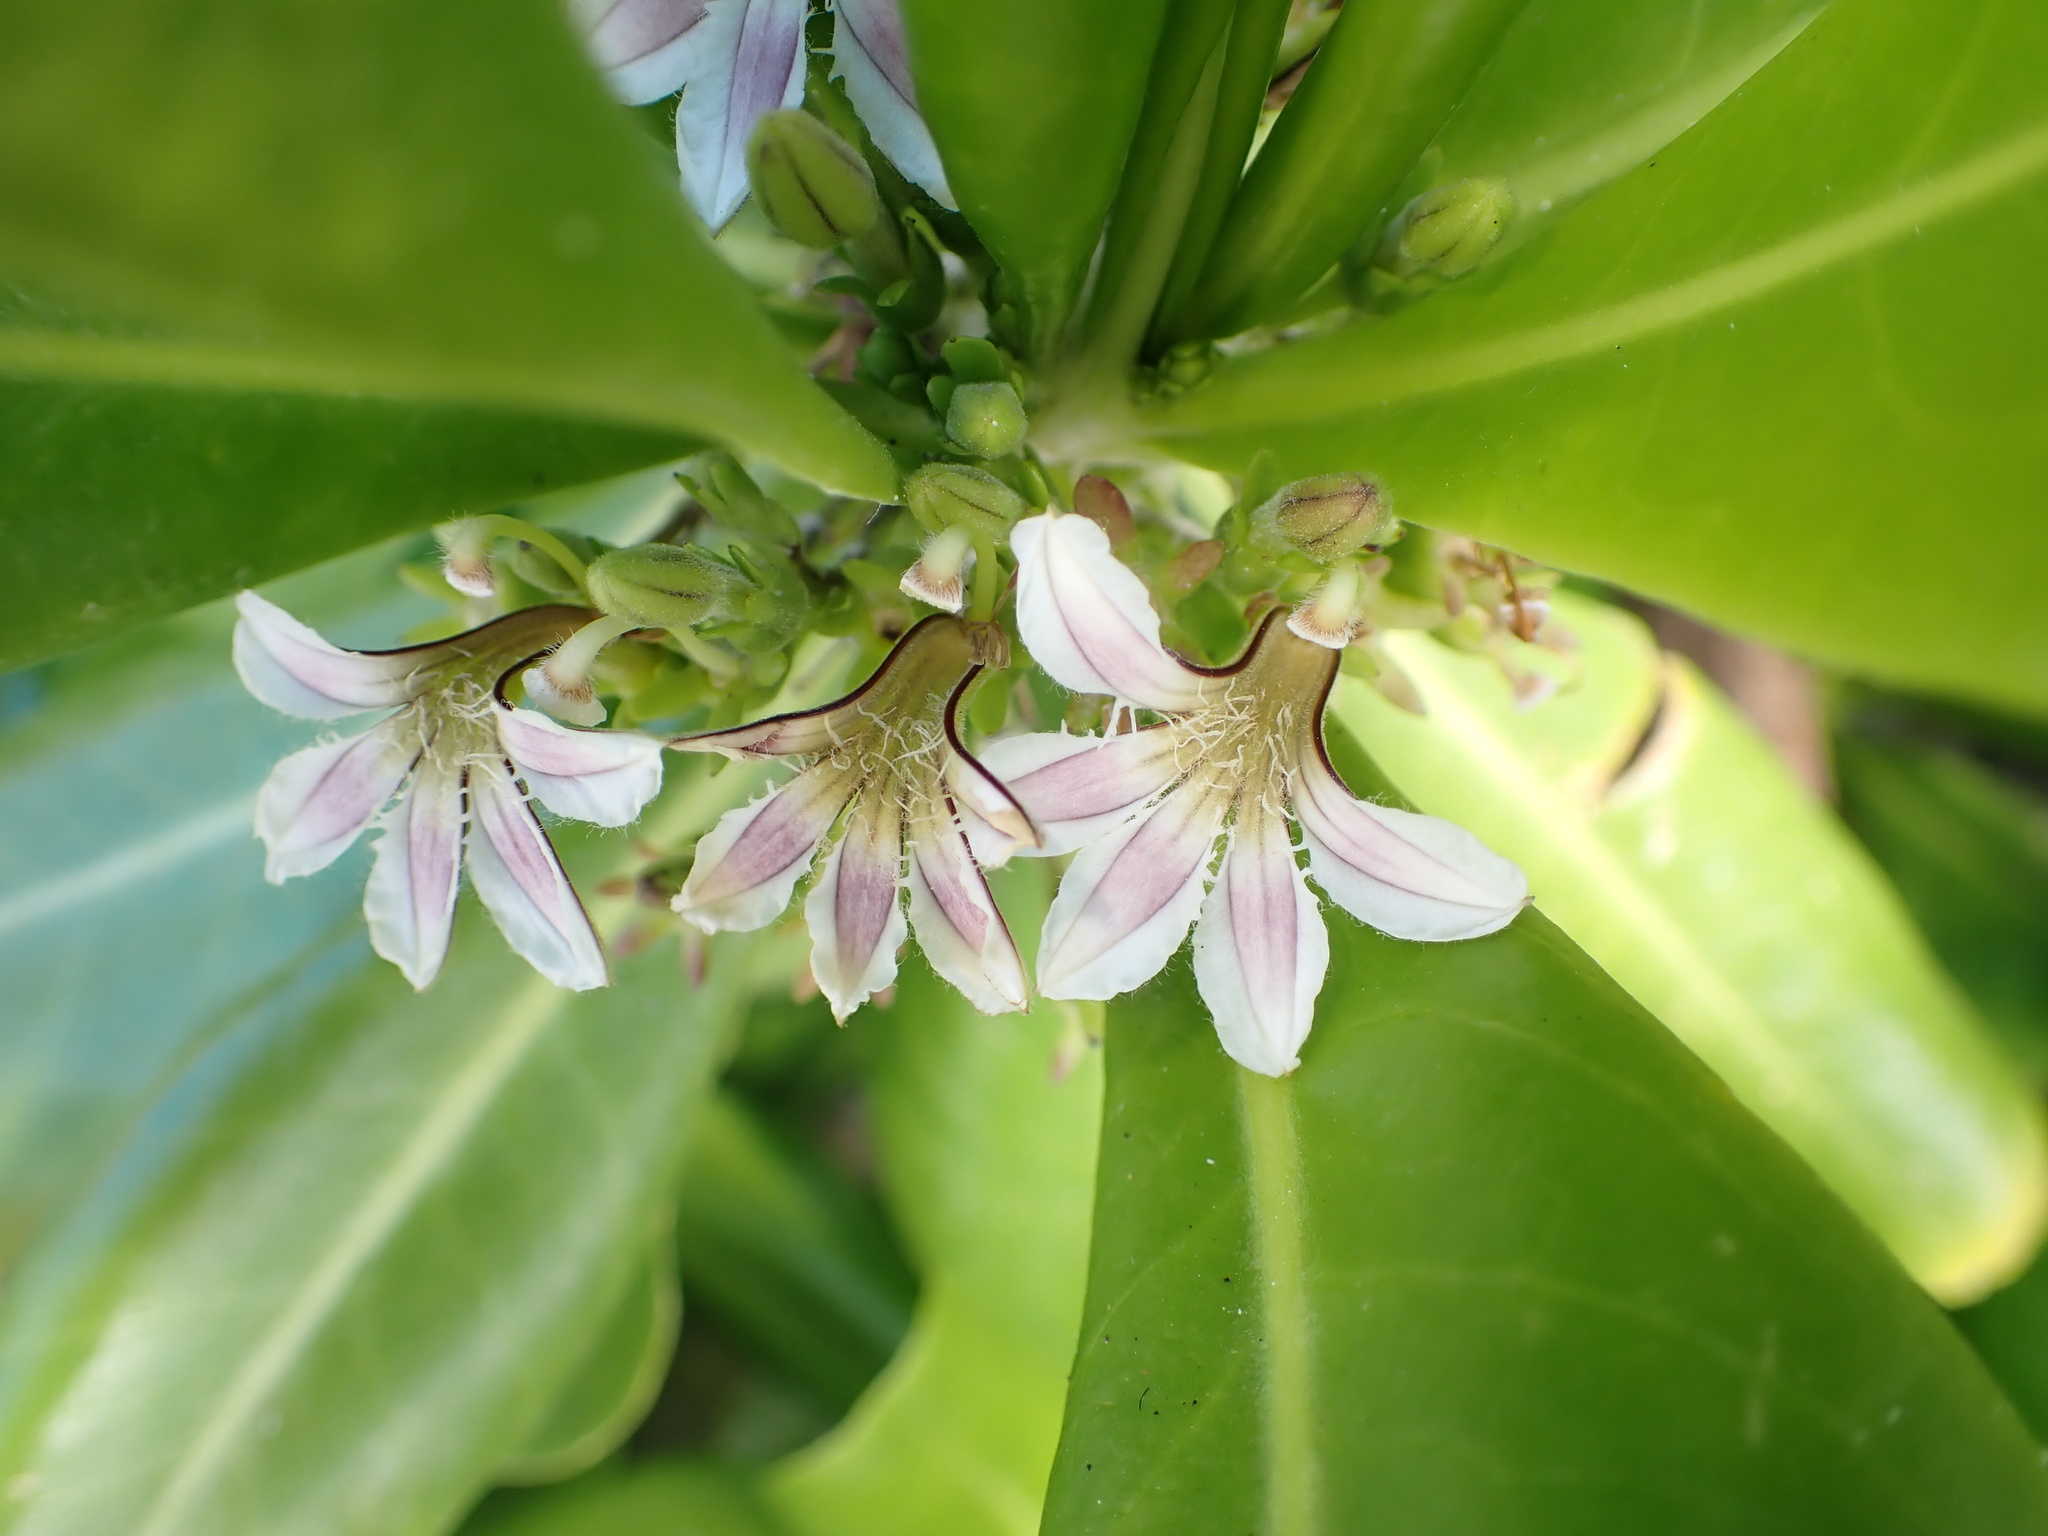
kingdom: Plantae
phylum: Tracheophyta
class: Magnoliopsida
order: Asterales
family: Goodeniaceae
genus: Scaevola
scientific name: Scaevola taccada
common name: Sea lettucetree
